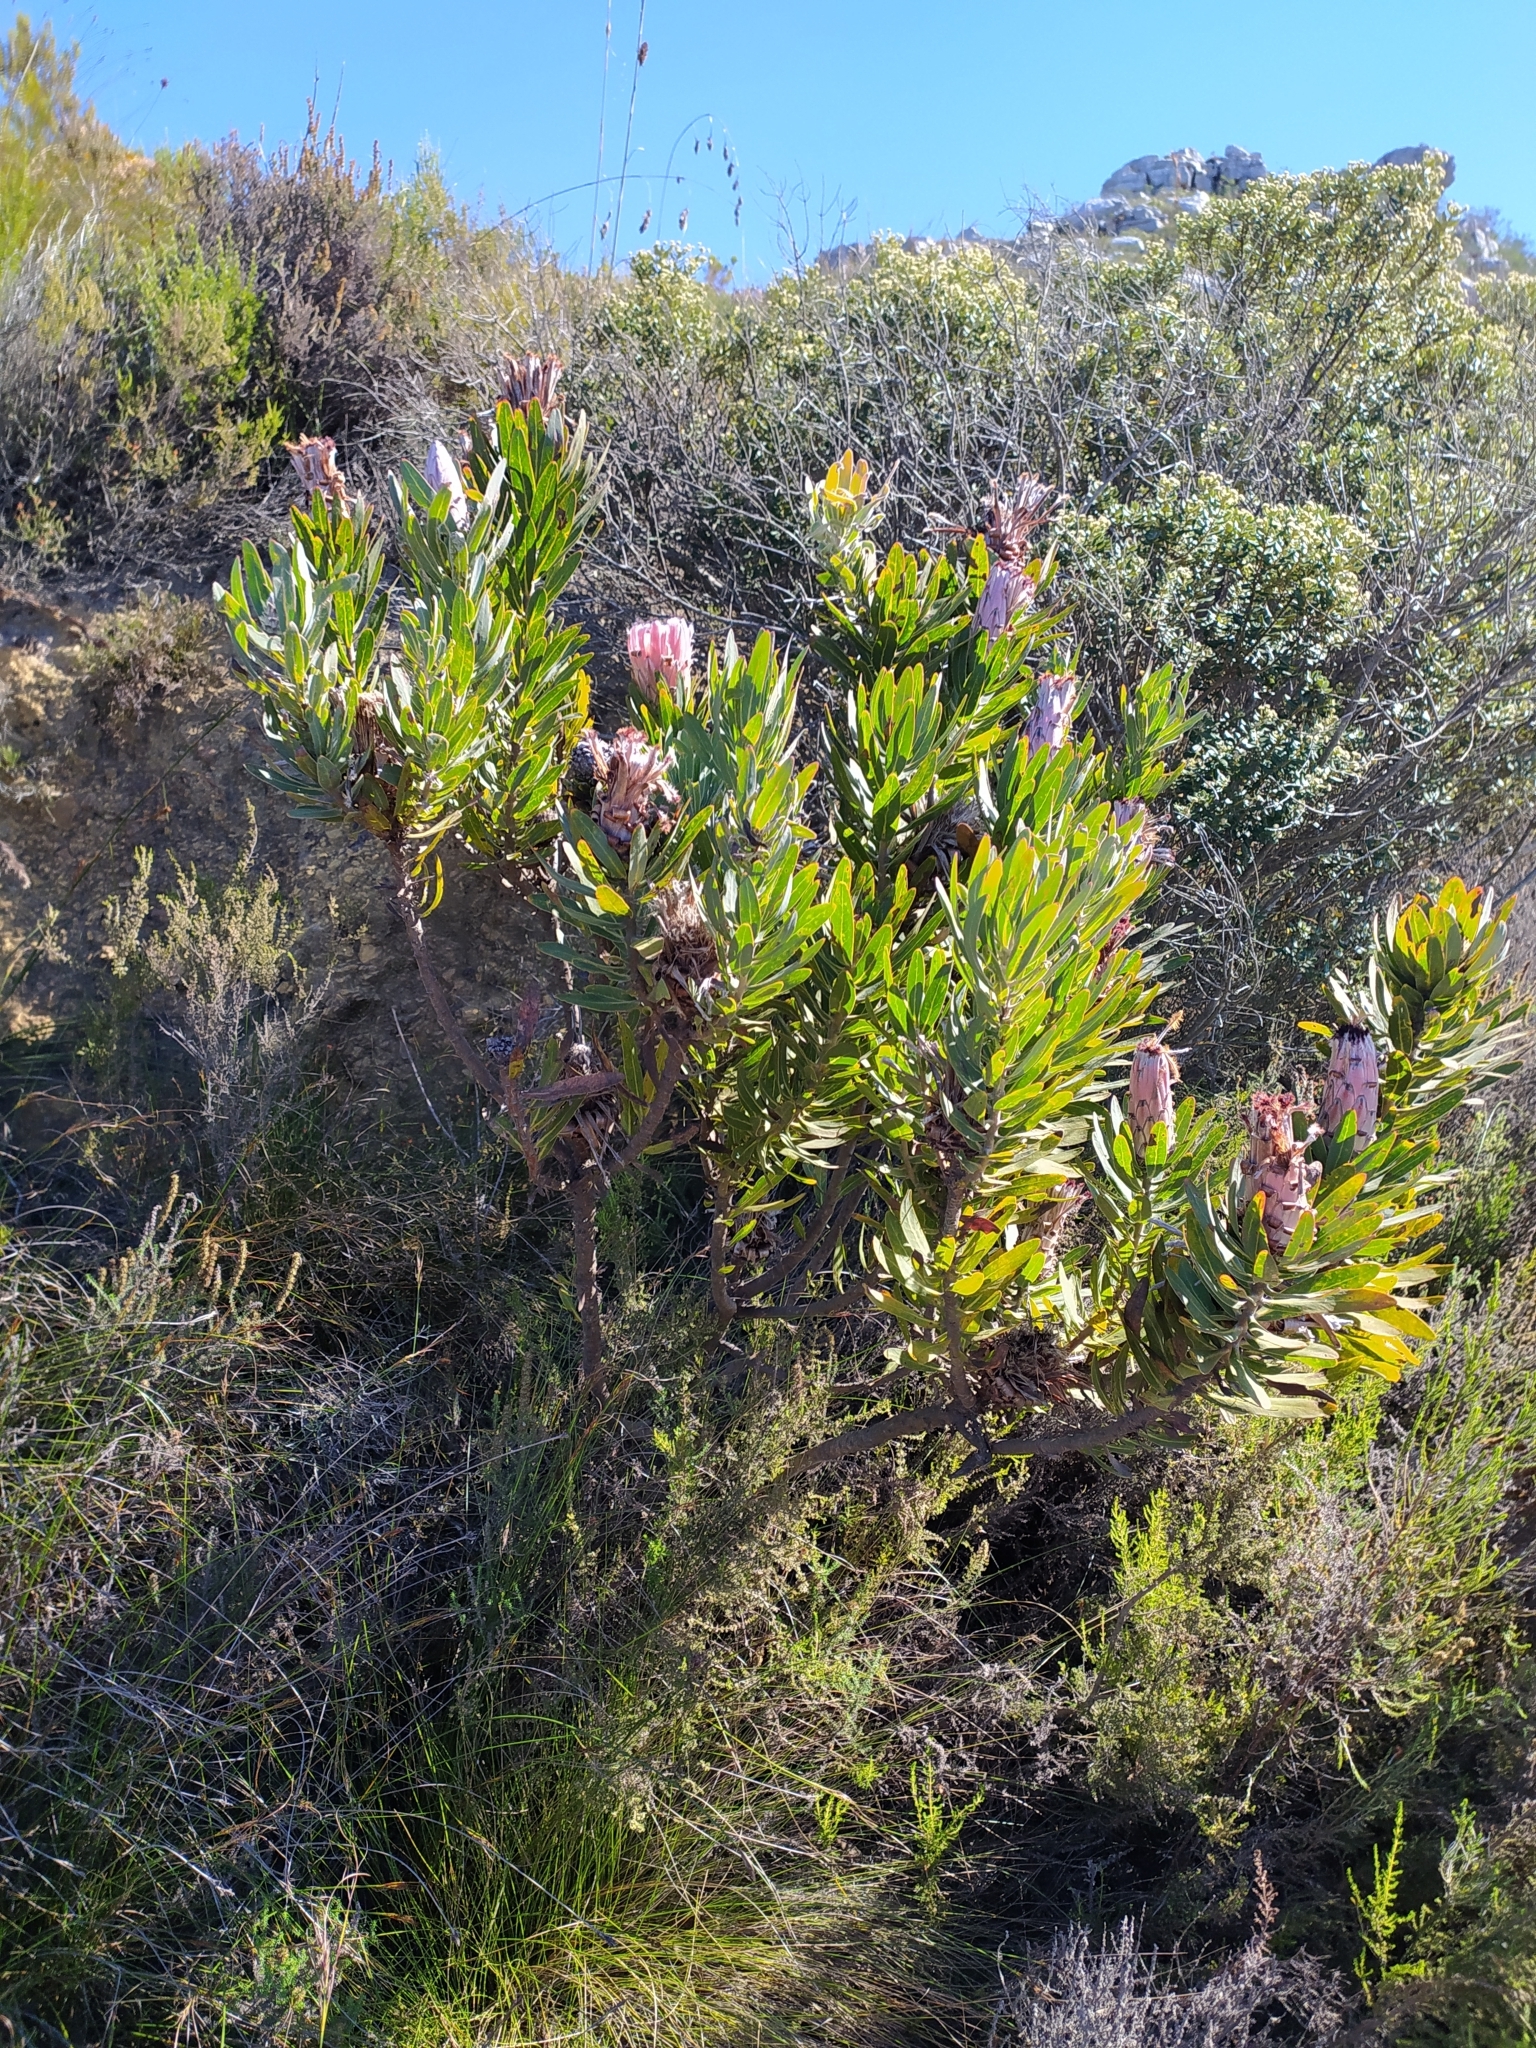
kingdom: Plantae
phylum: Tracheophyta
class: Magnoliopsida
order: Proteales
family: Proteaceae
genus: Protea
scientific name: Protea neriifolia
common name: Blue sugarbush
